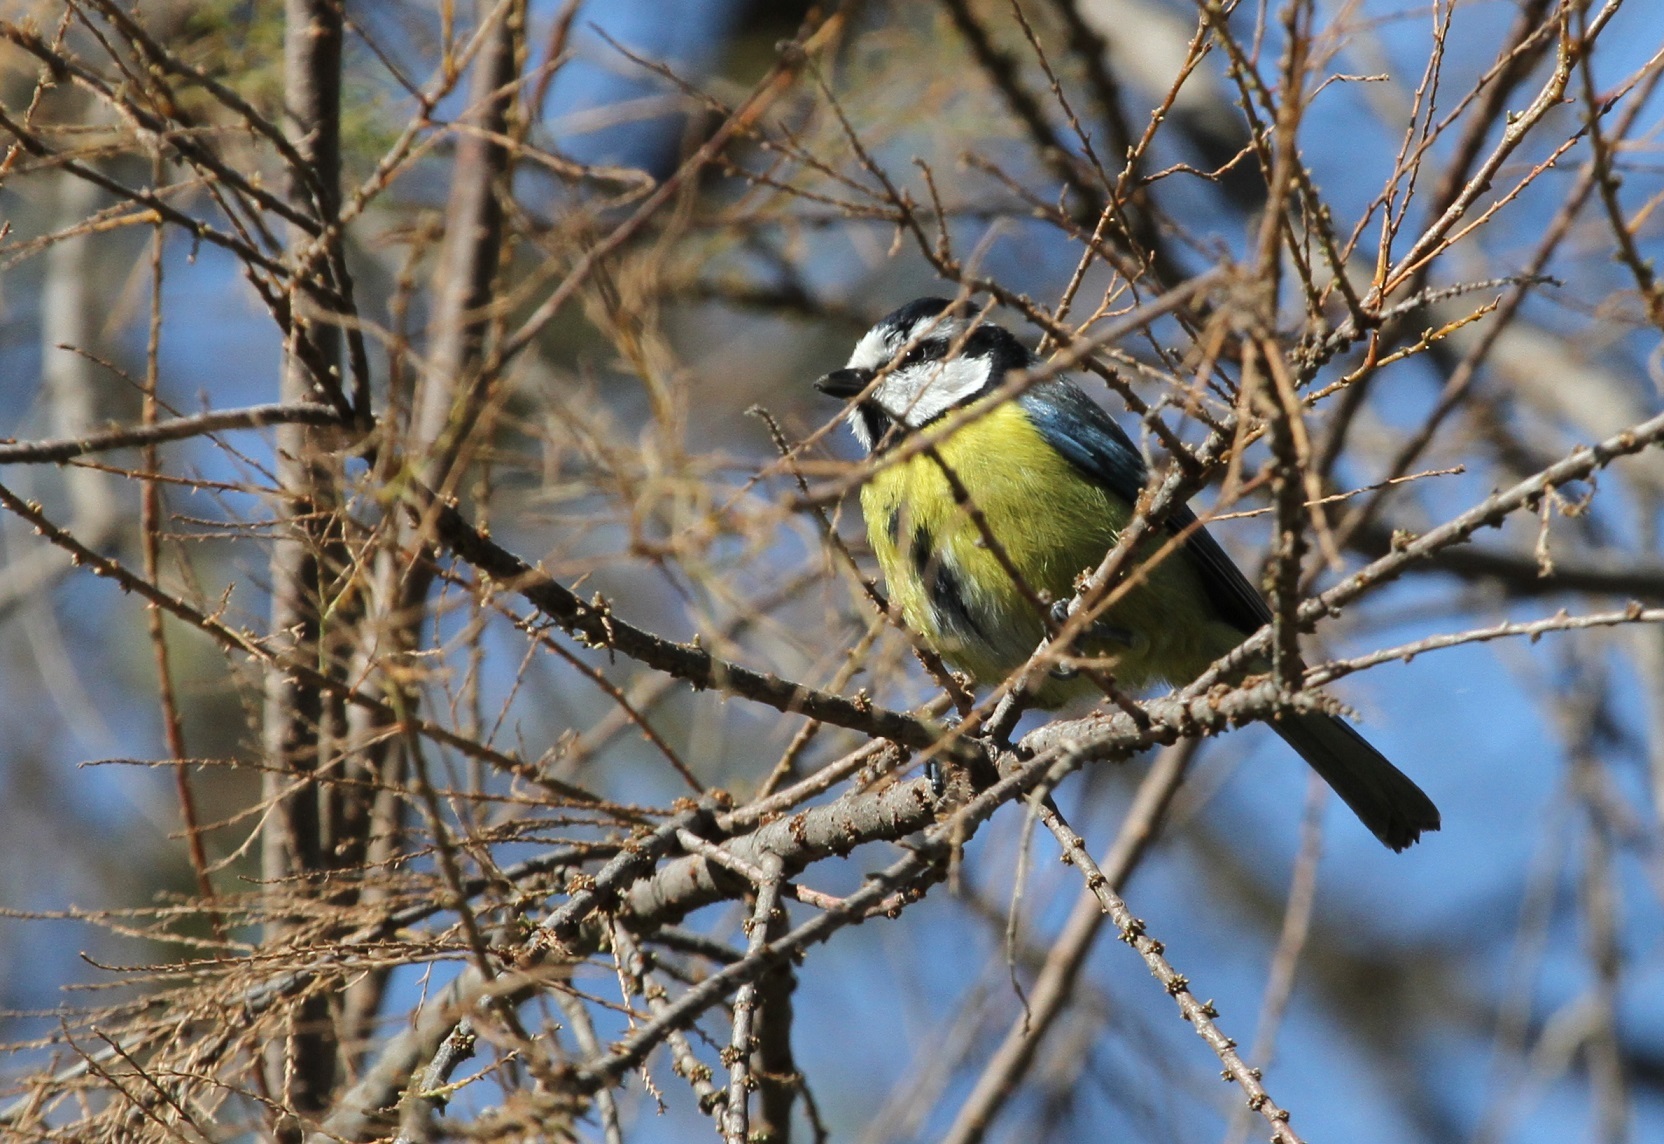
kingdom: Animalia
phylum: Chordata
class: Aves
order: Passeriformes
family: Paridae
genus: Cyanistes
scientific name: Cyanistes teneriffae
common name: African blue tit
